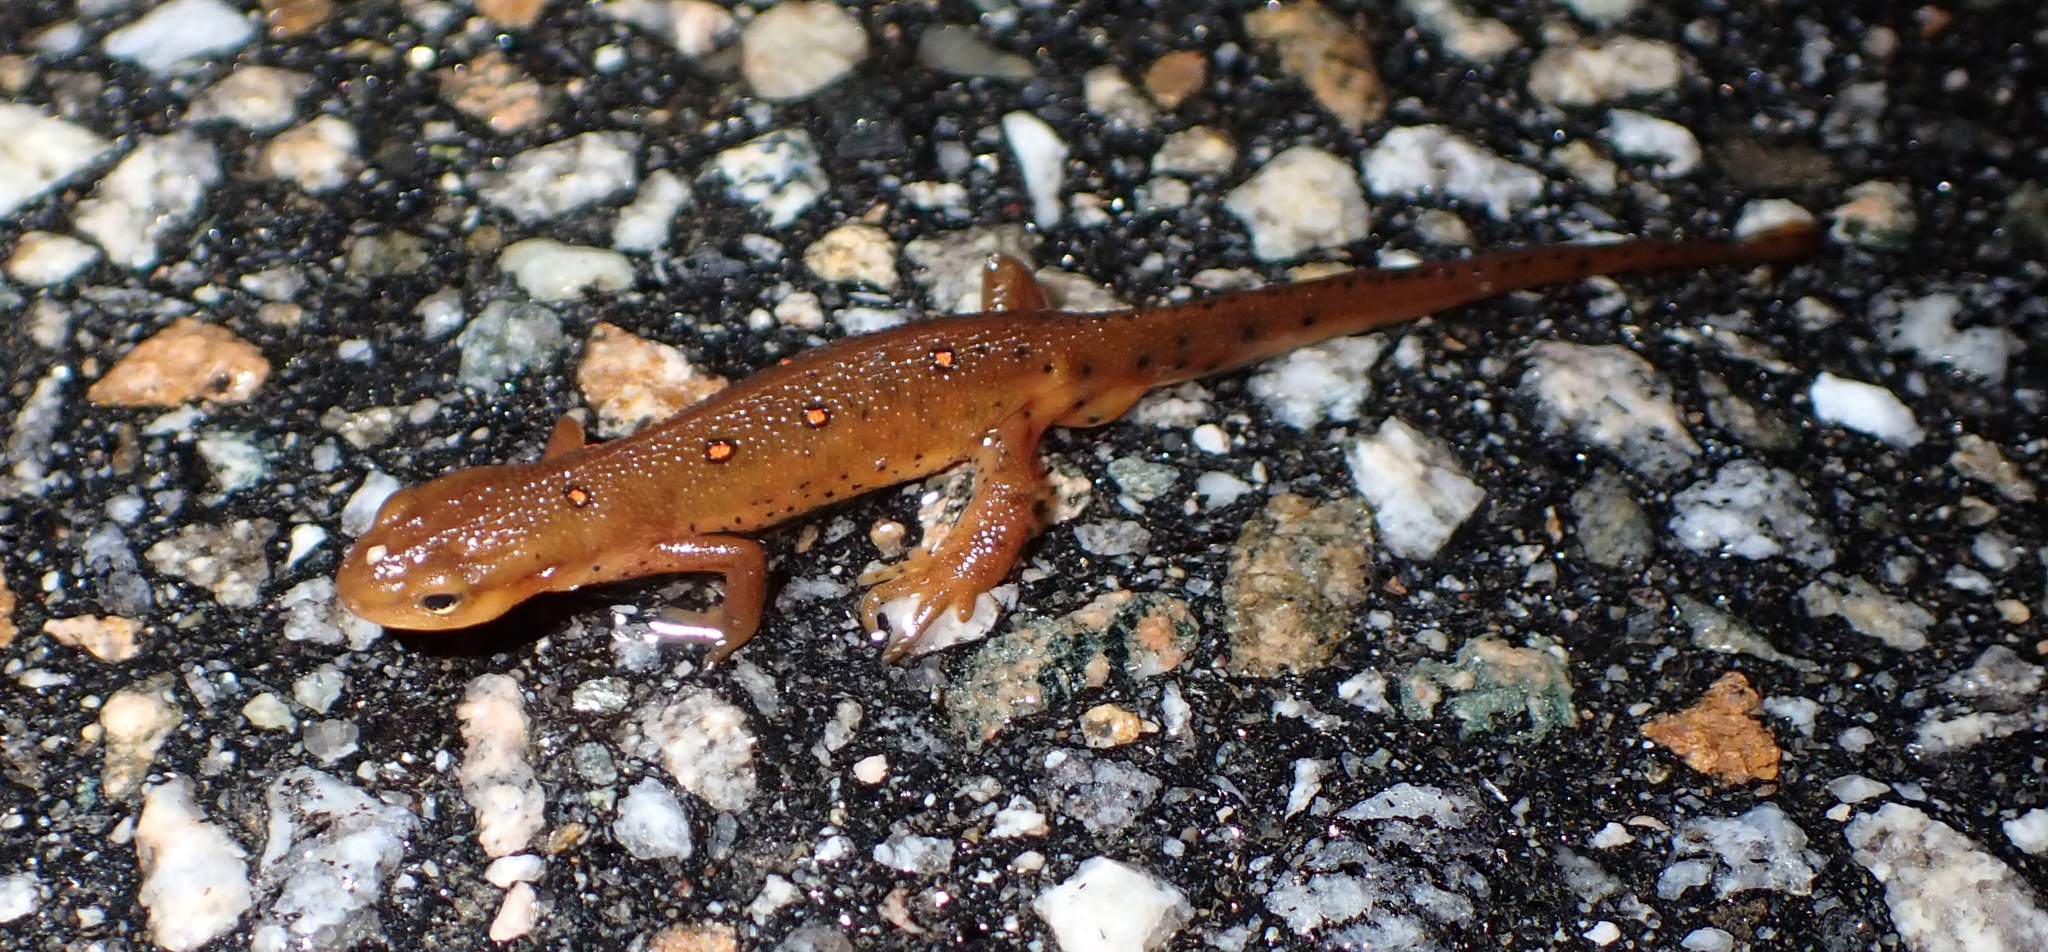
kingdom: Animalia
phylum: Chordata
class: Amphibia
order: Caudata
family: Salamandridae
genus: Notophthalmus
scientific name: Notophthalmus viridescens
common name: Eastern newt
